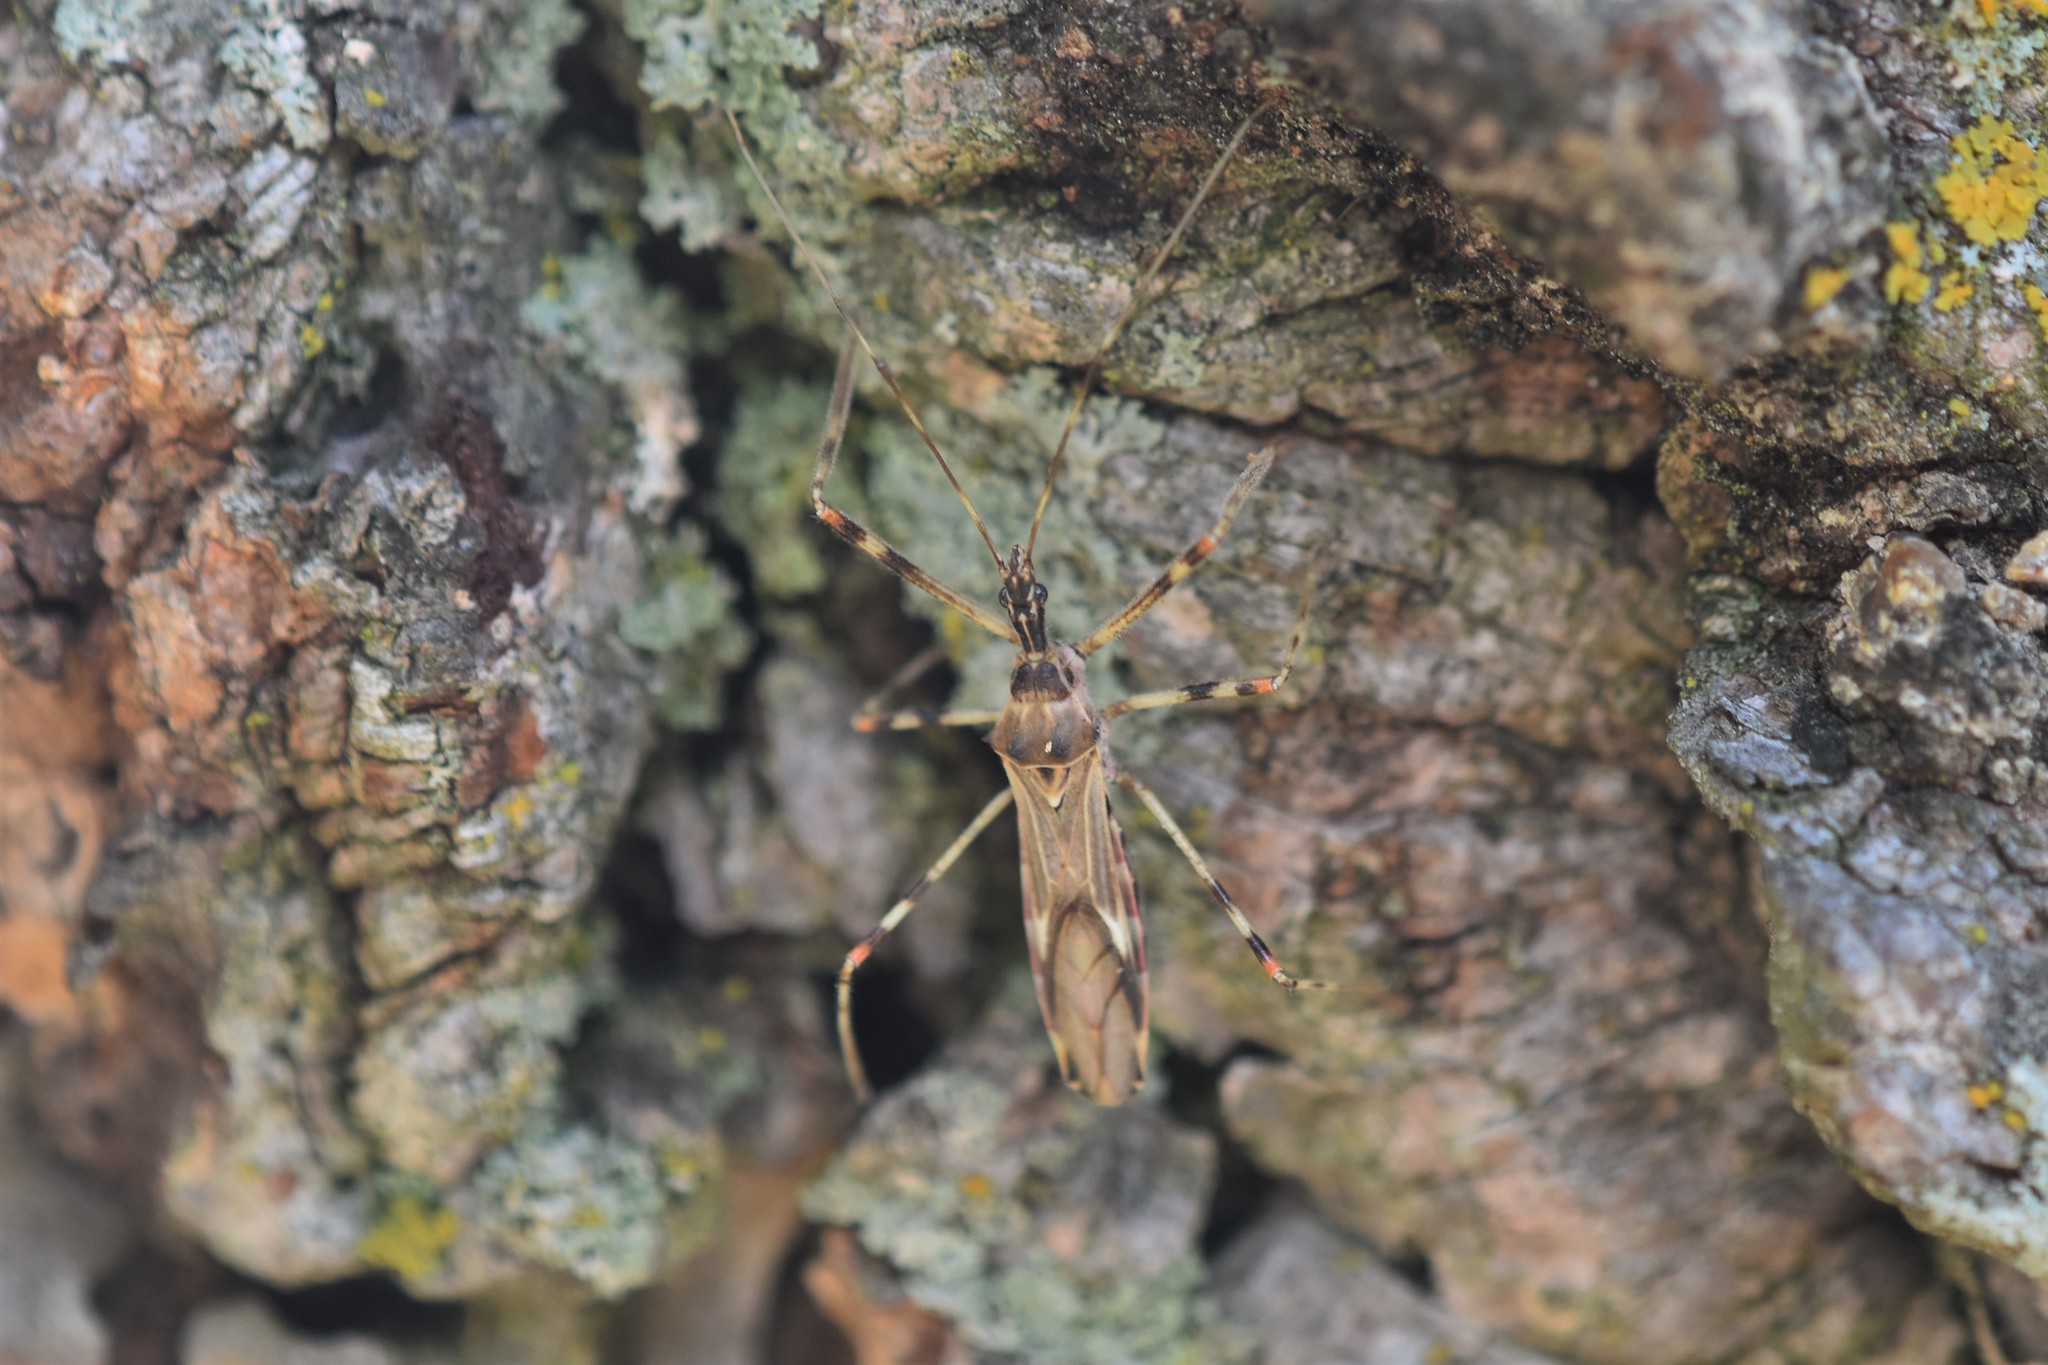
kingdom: Animalia
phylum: Arthropoda
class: Insecta
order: Hemiptera
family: Reduviidae
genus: Zelus
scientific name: Zelus tetracanthus
